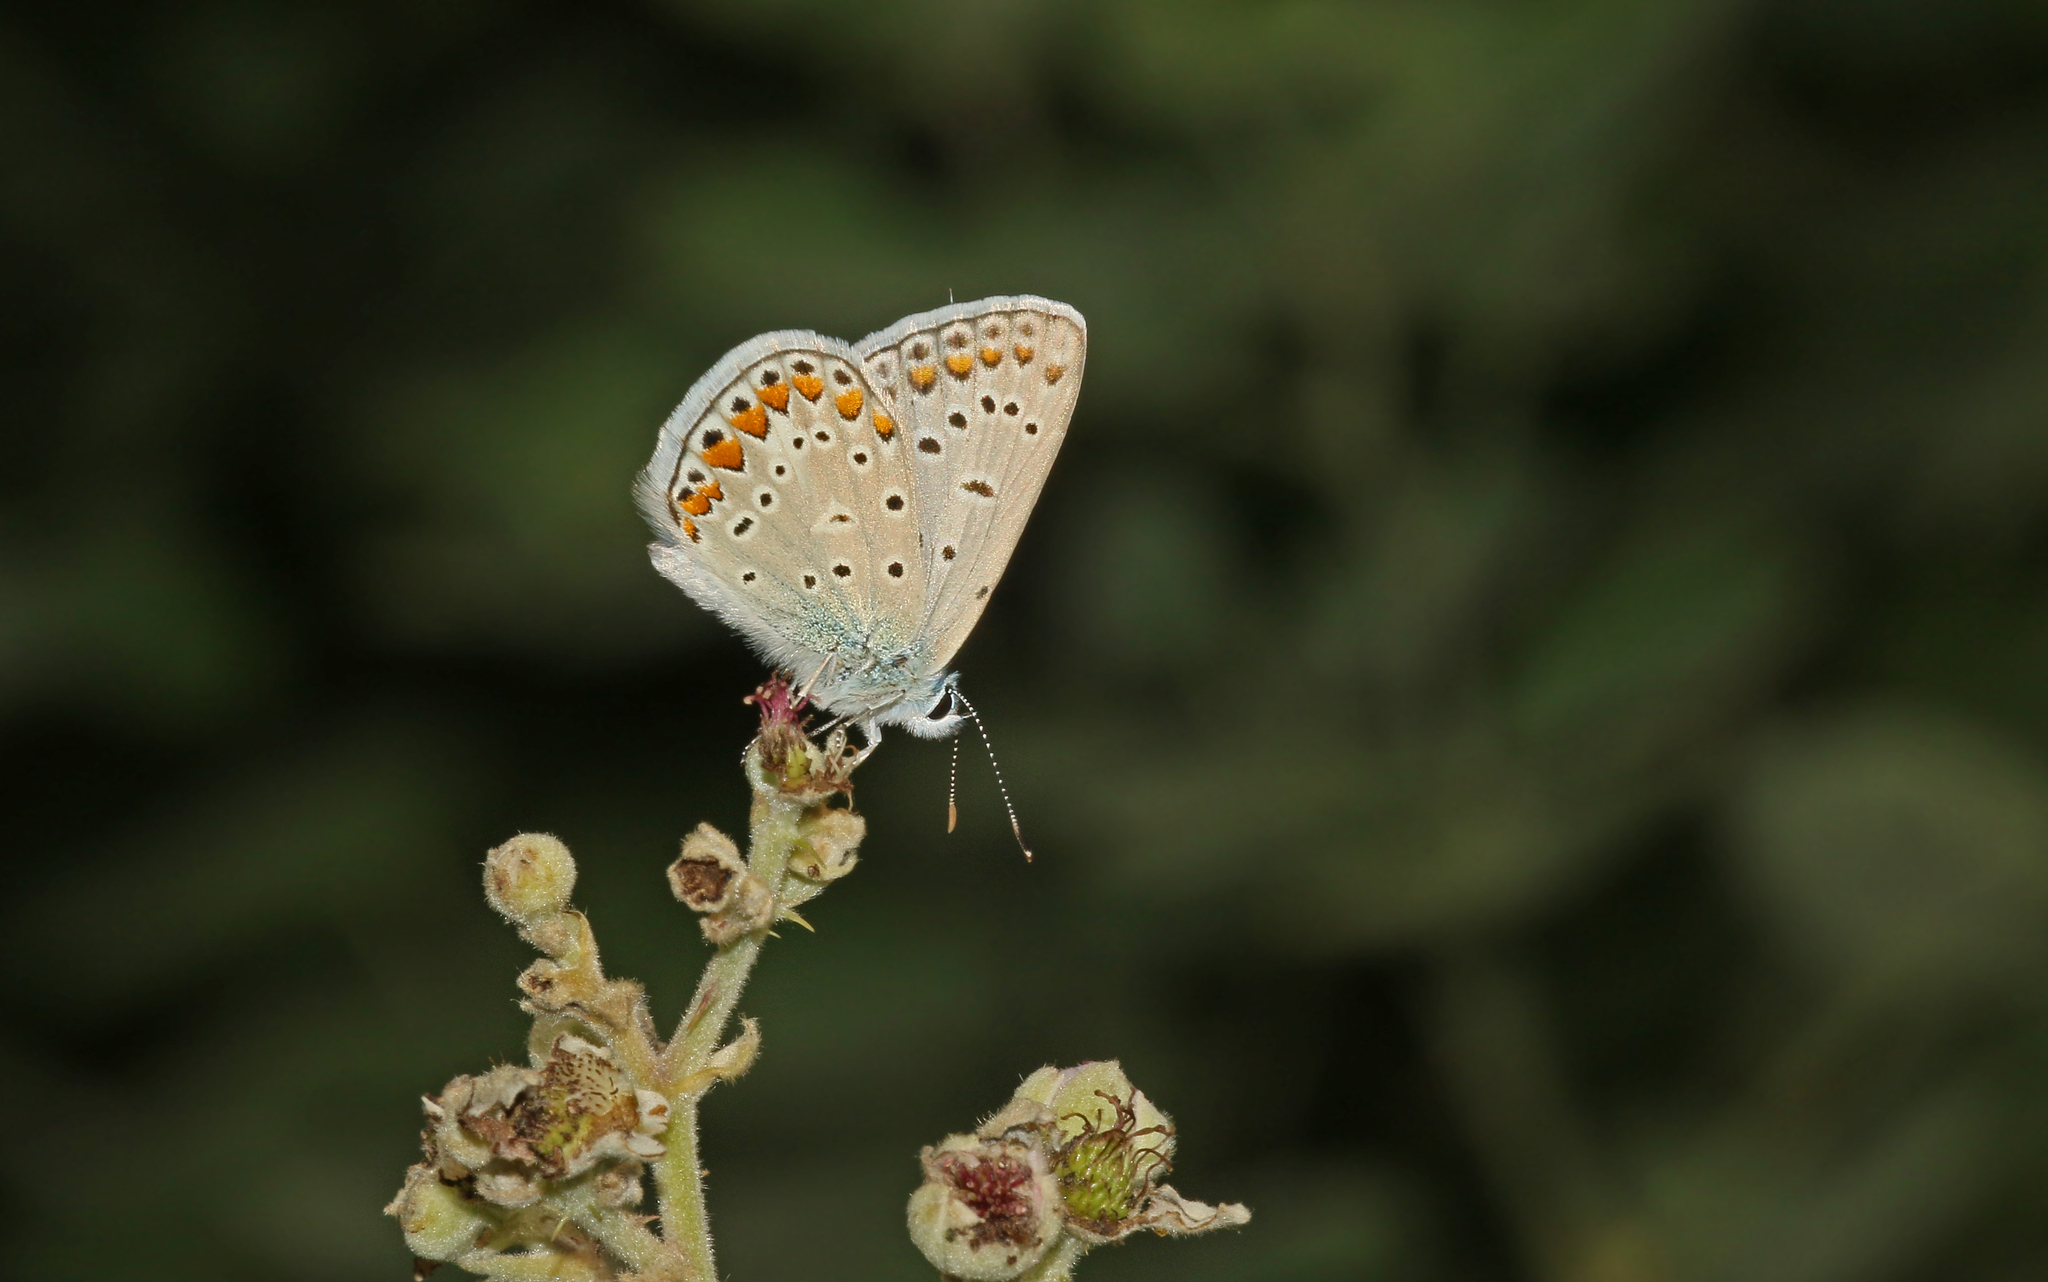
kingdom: Animalia
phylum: Arthropoda
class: Insecta
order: Lepidoptera
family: Lycaenidae
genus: Polyommatus
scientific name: Polyommatus icarus
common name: Common blue
